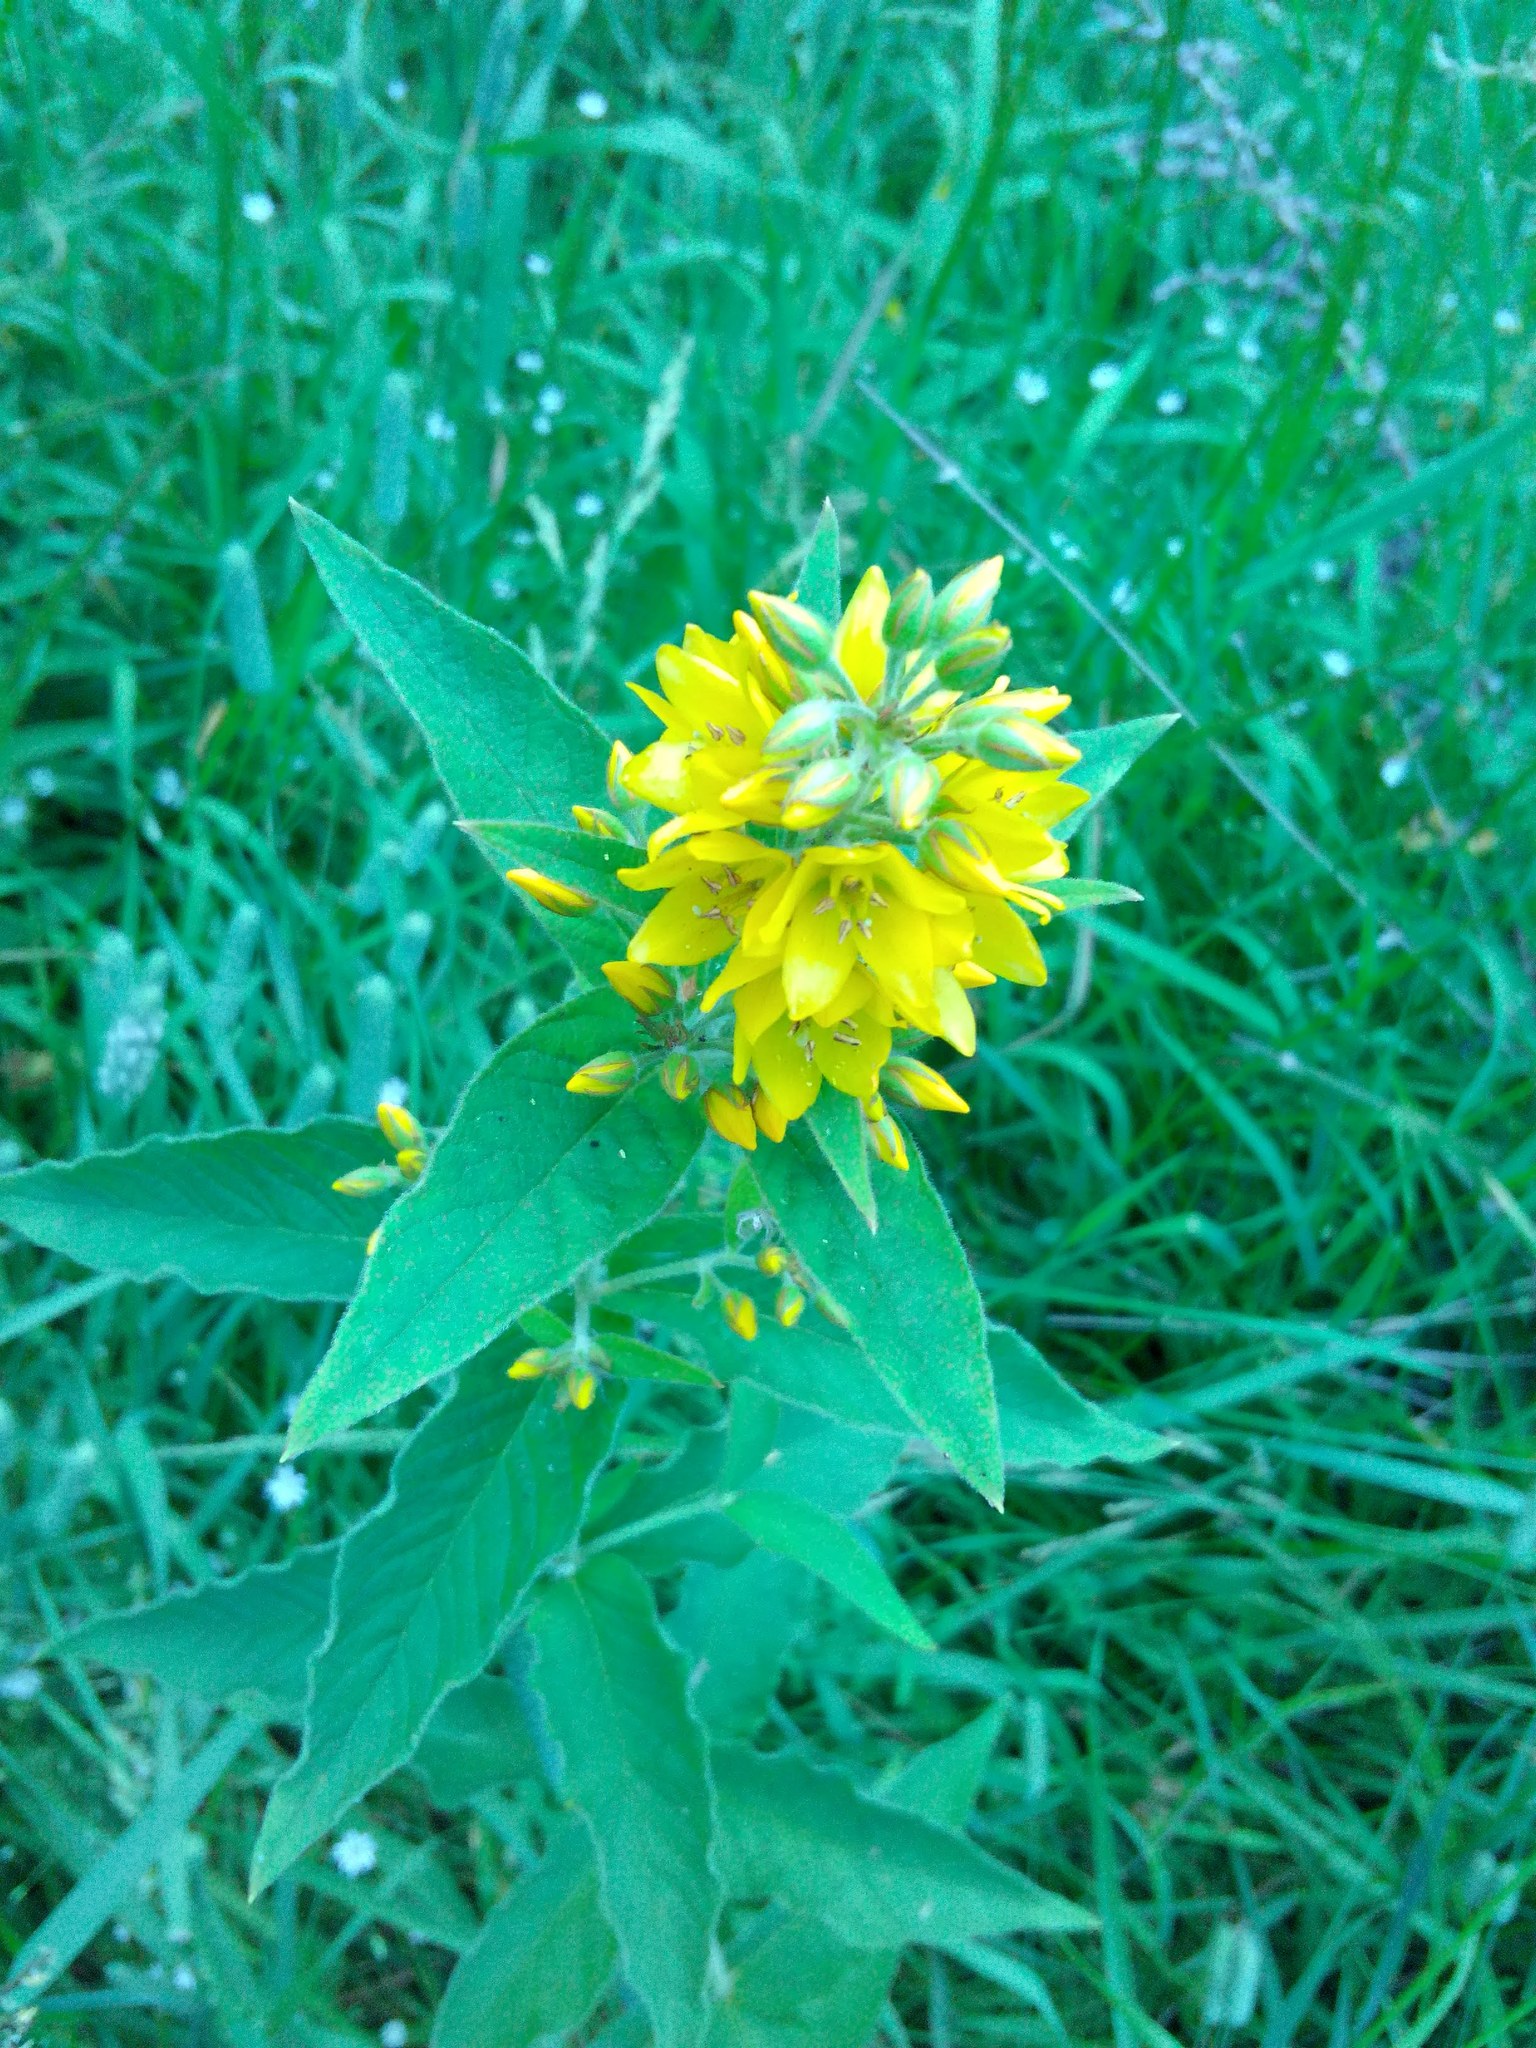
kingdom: Plantae
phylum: Tracheophyta
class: Magnoliopsida
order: Ericales
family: Primulaceae
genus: Lysimachia
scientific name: Lysimachia vulgaris
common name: Yellow loosestrife
